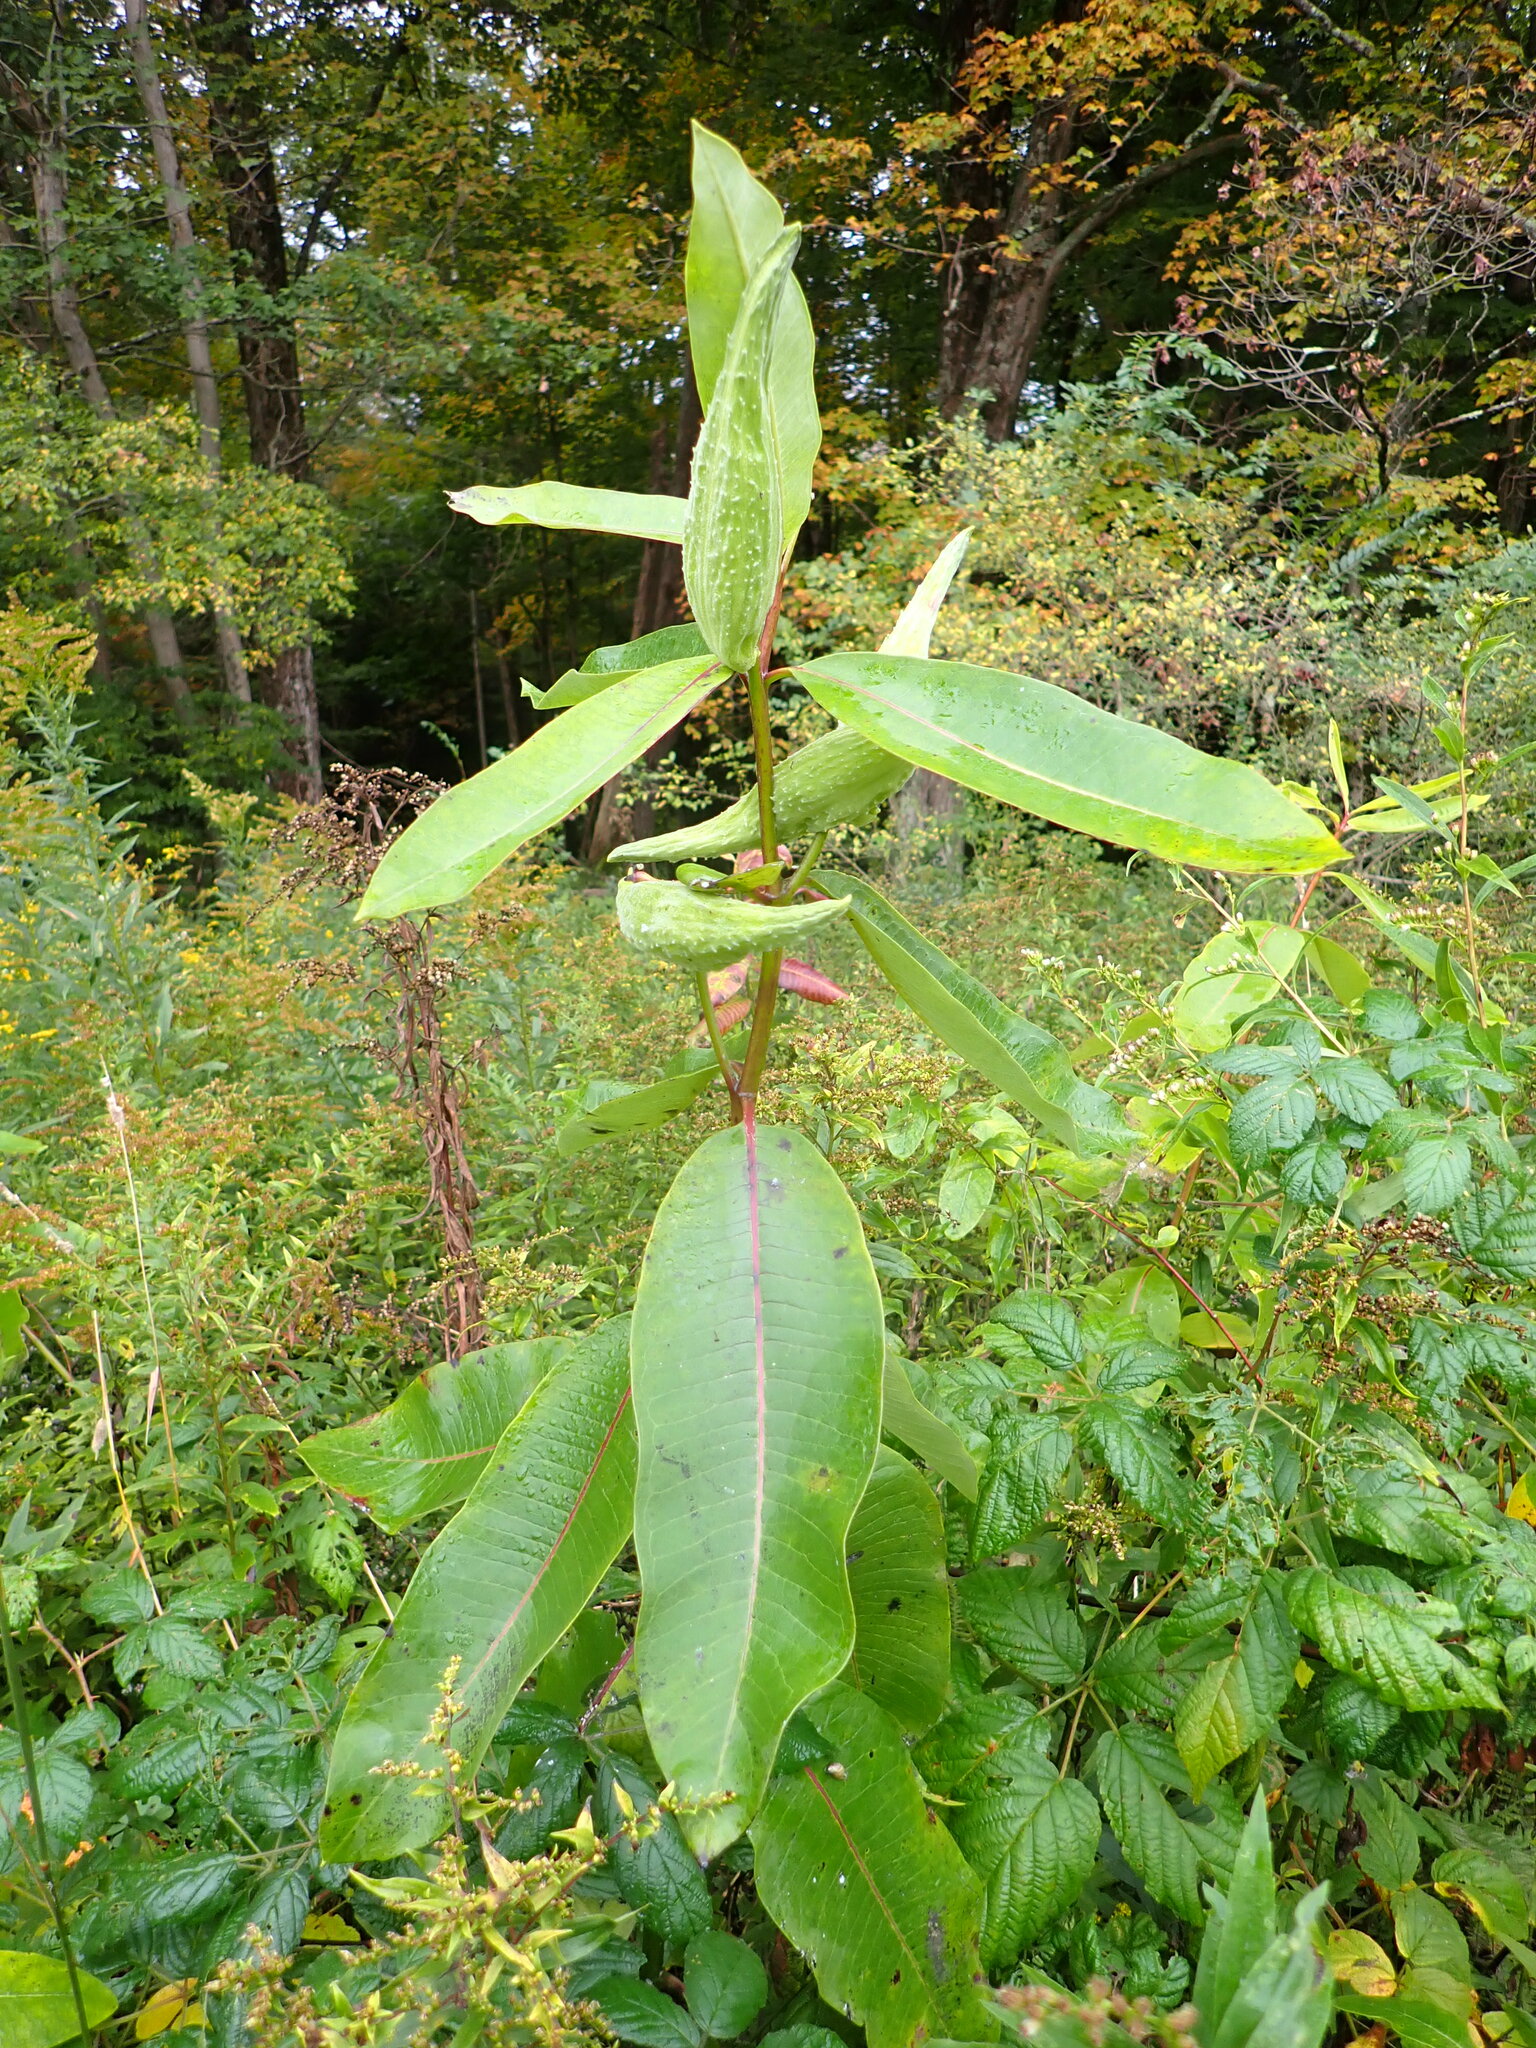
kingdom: Plantae
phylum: Tracheophyta
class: Magnoliopsida
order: Gentianales
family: Apocynaceae
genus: Asclepias
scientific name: Asclepias syriaca
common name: Common milkweed
